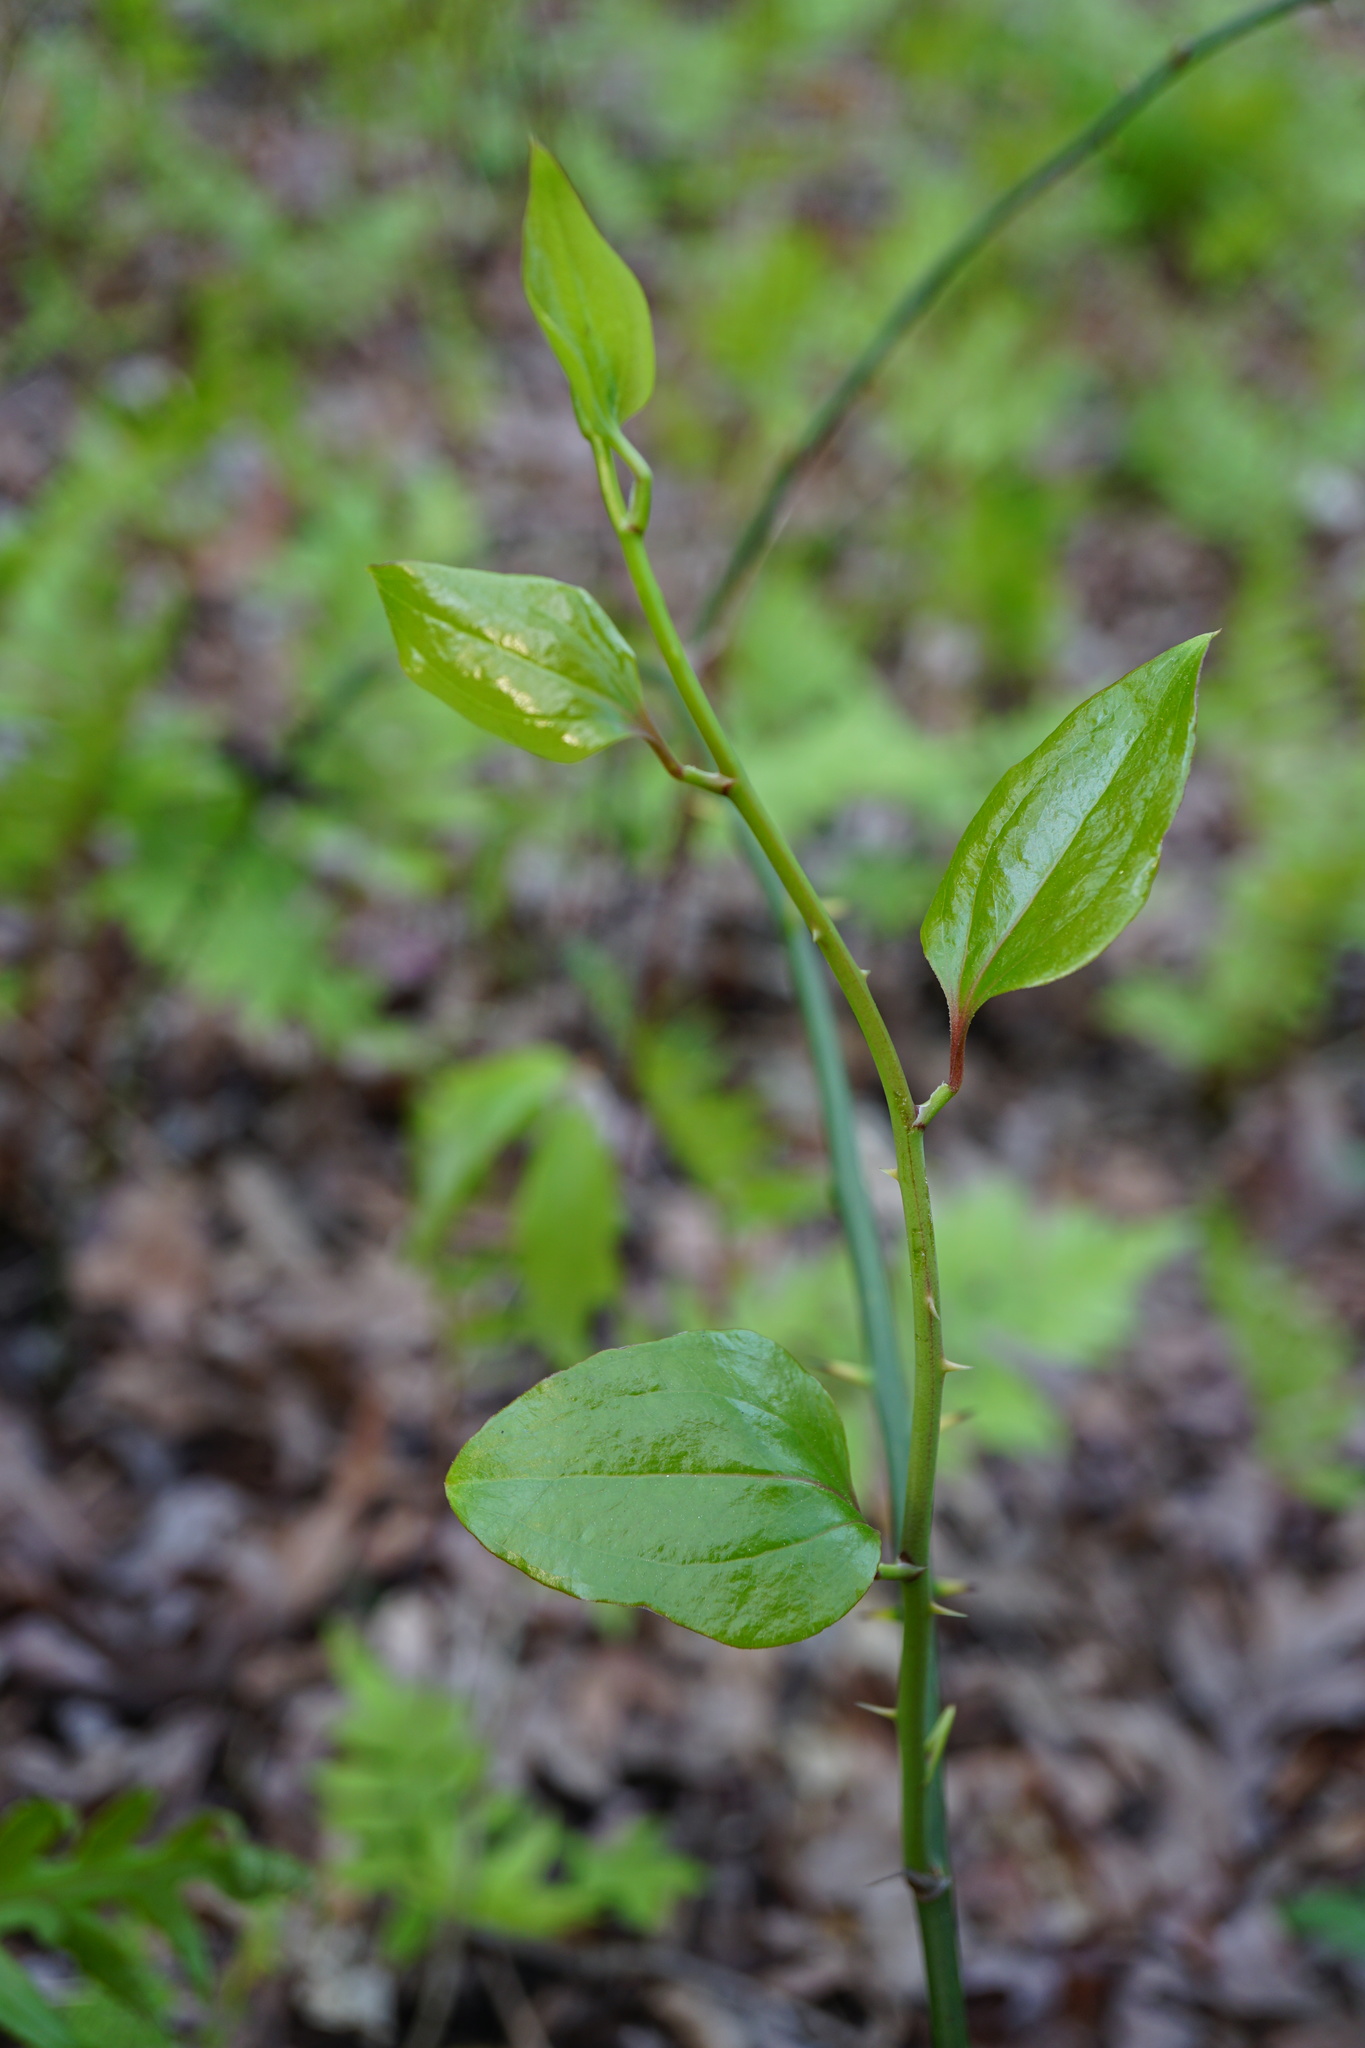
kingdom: Plantae
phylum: Tracheophyta
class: Liliopsida
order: Liliales
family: Smilacaceae
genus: Smilax
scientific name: Smilax rotundifolia
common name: Bullbriar
